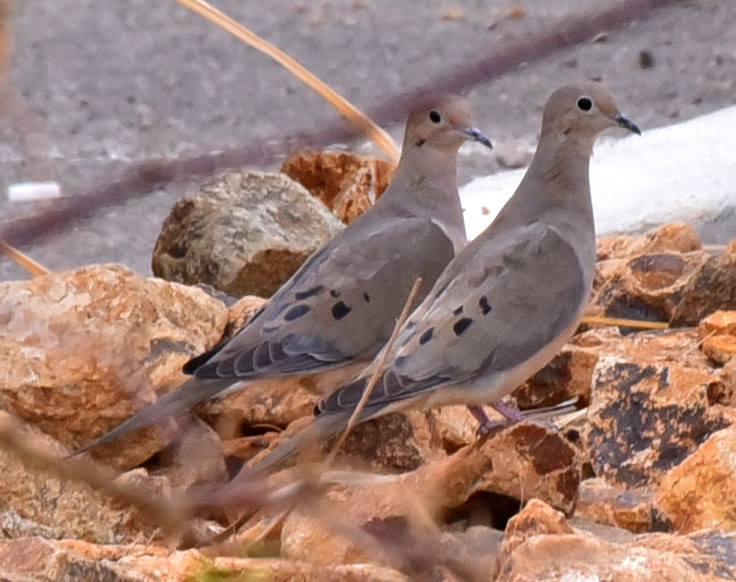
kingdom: Animalia
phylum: Chordata
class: Aves
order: Columbiformes
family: Columbidae
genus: Zenaida
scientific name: Zenaida macroura
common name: Mourning dove
